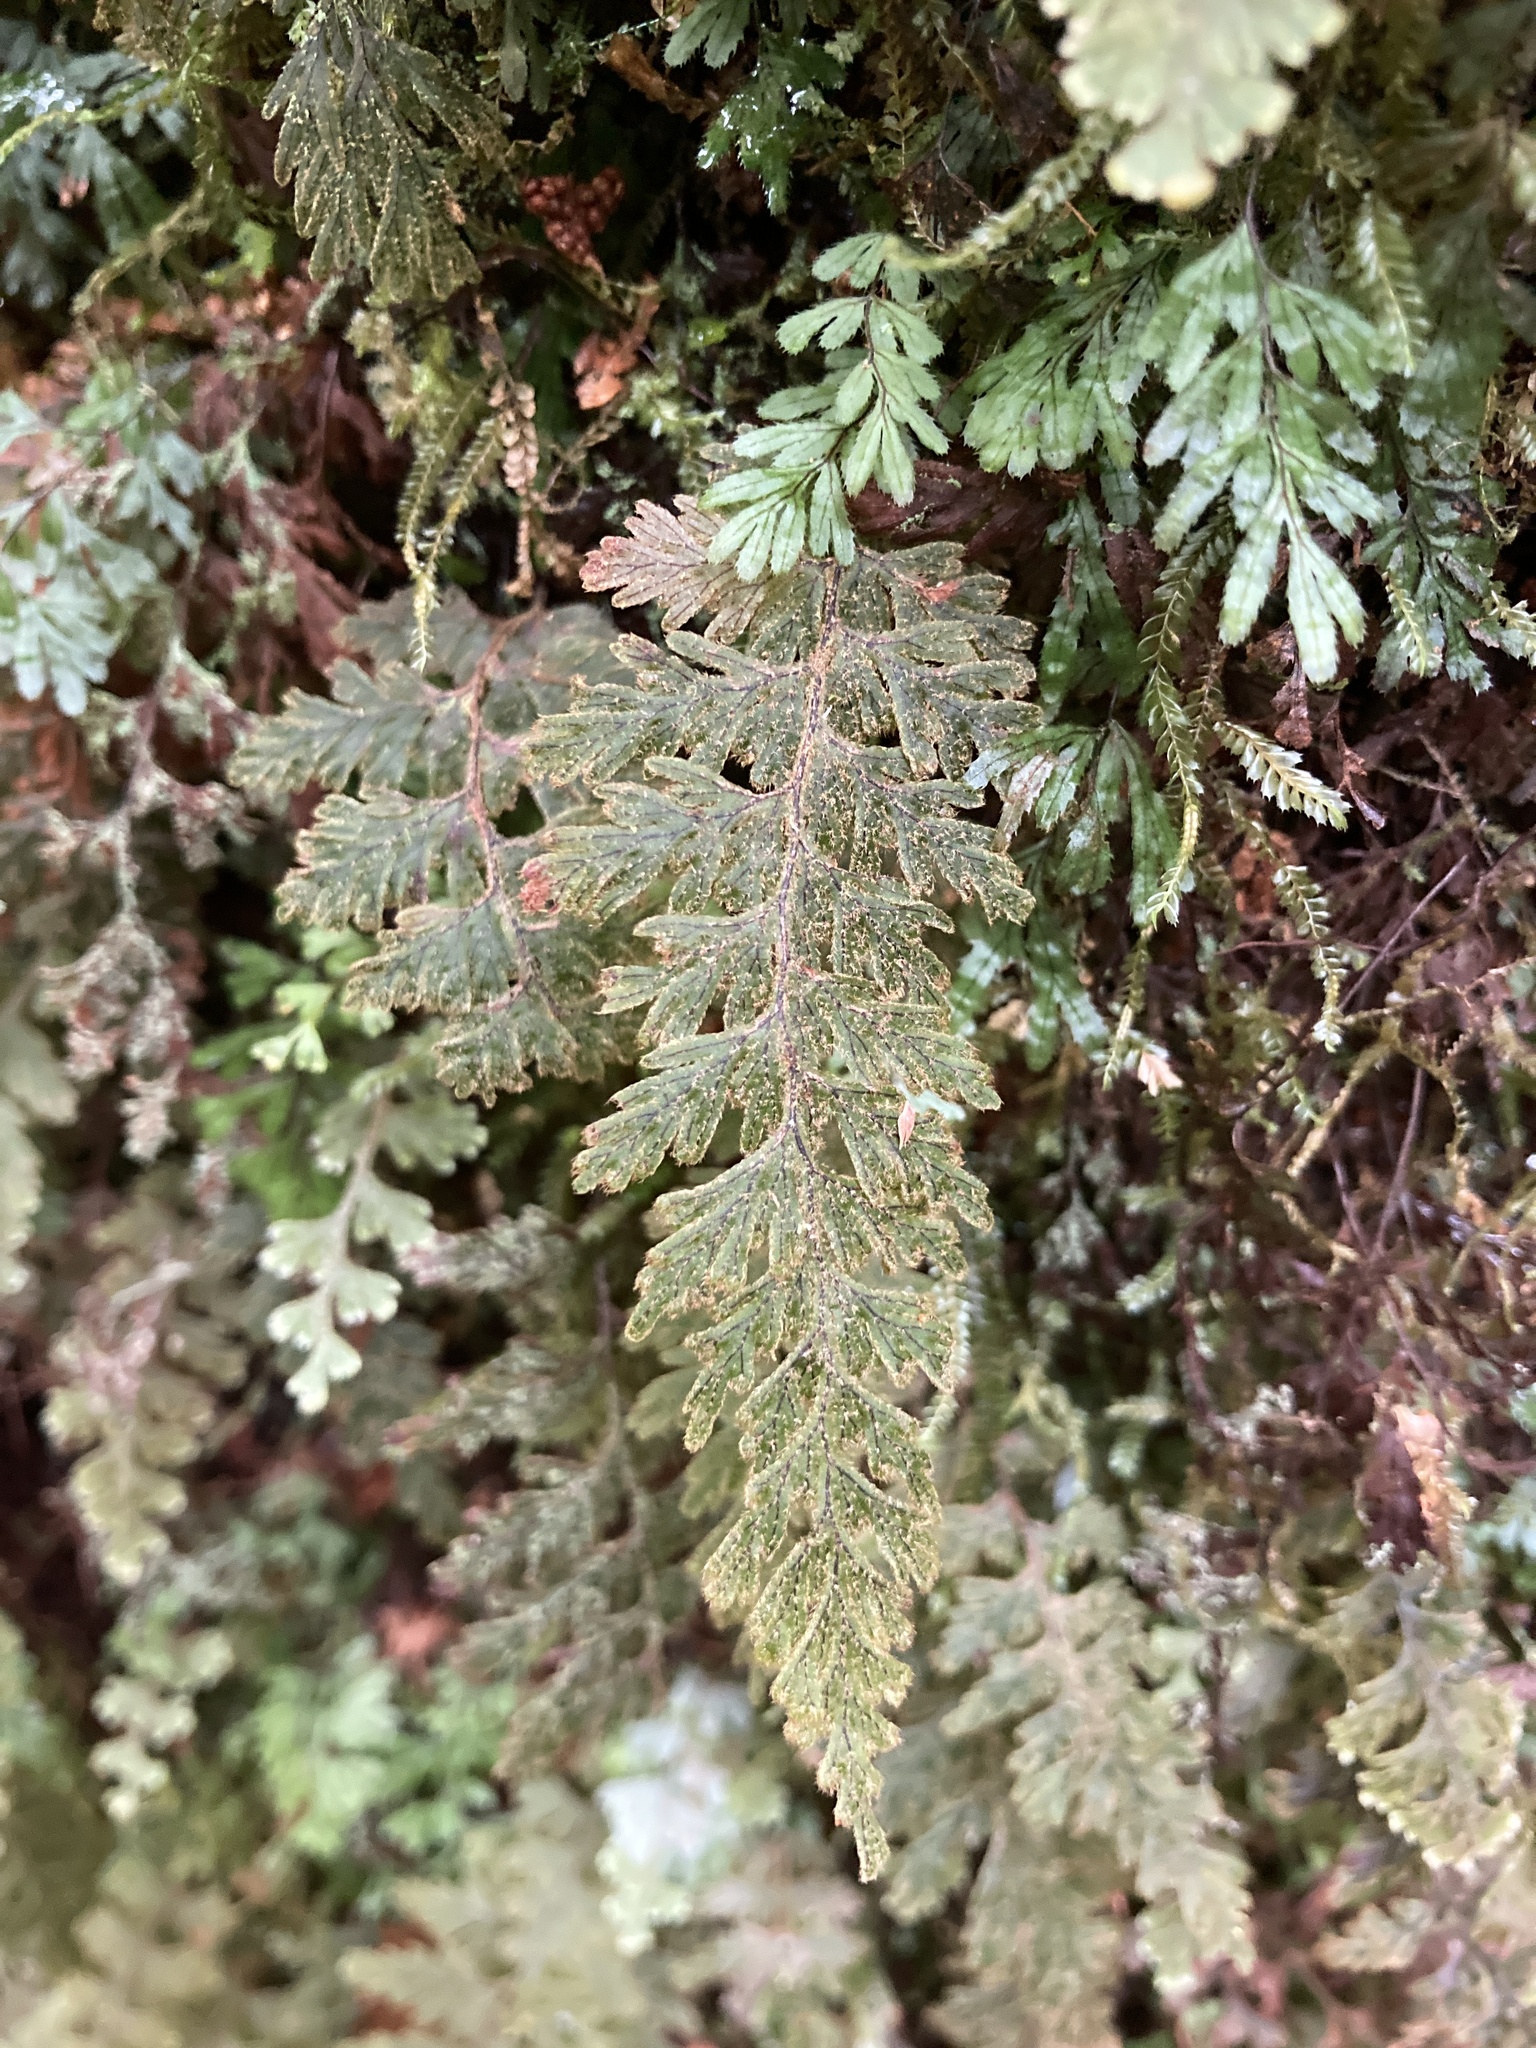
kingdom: Plantae
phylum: Tracheophyta
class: Polypodiopsida
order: Hymenophyllales
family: Hymenophyllaceae
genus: Hymenophyllum
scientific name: Hymenophyllum frankliniae
